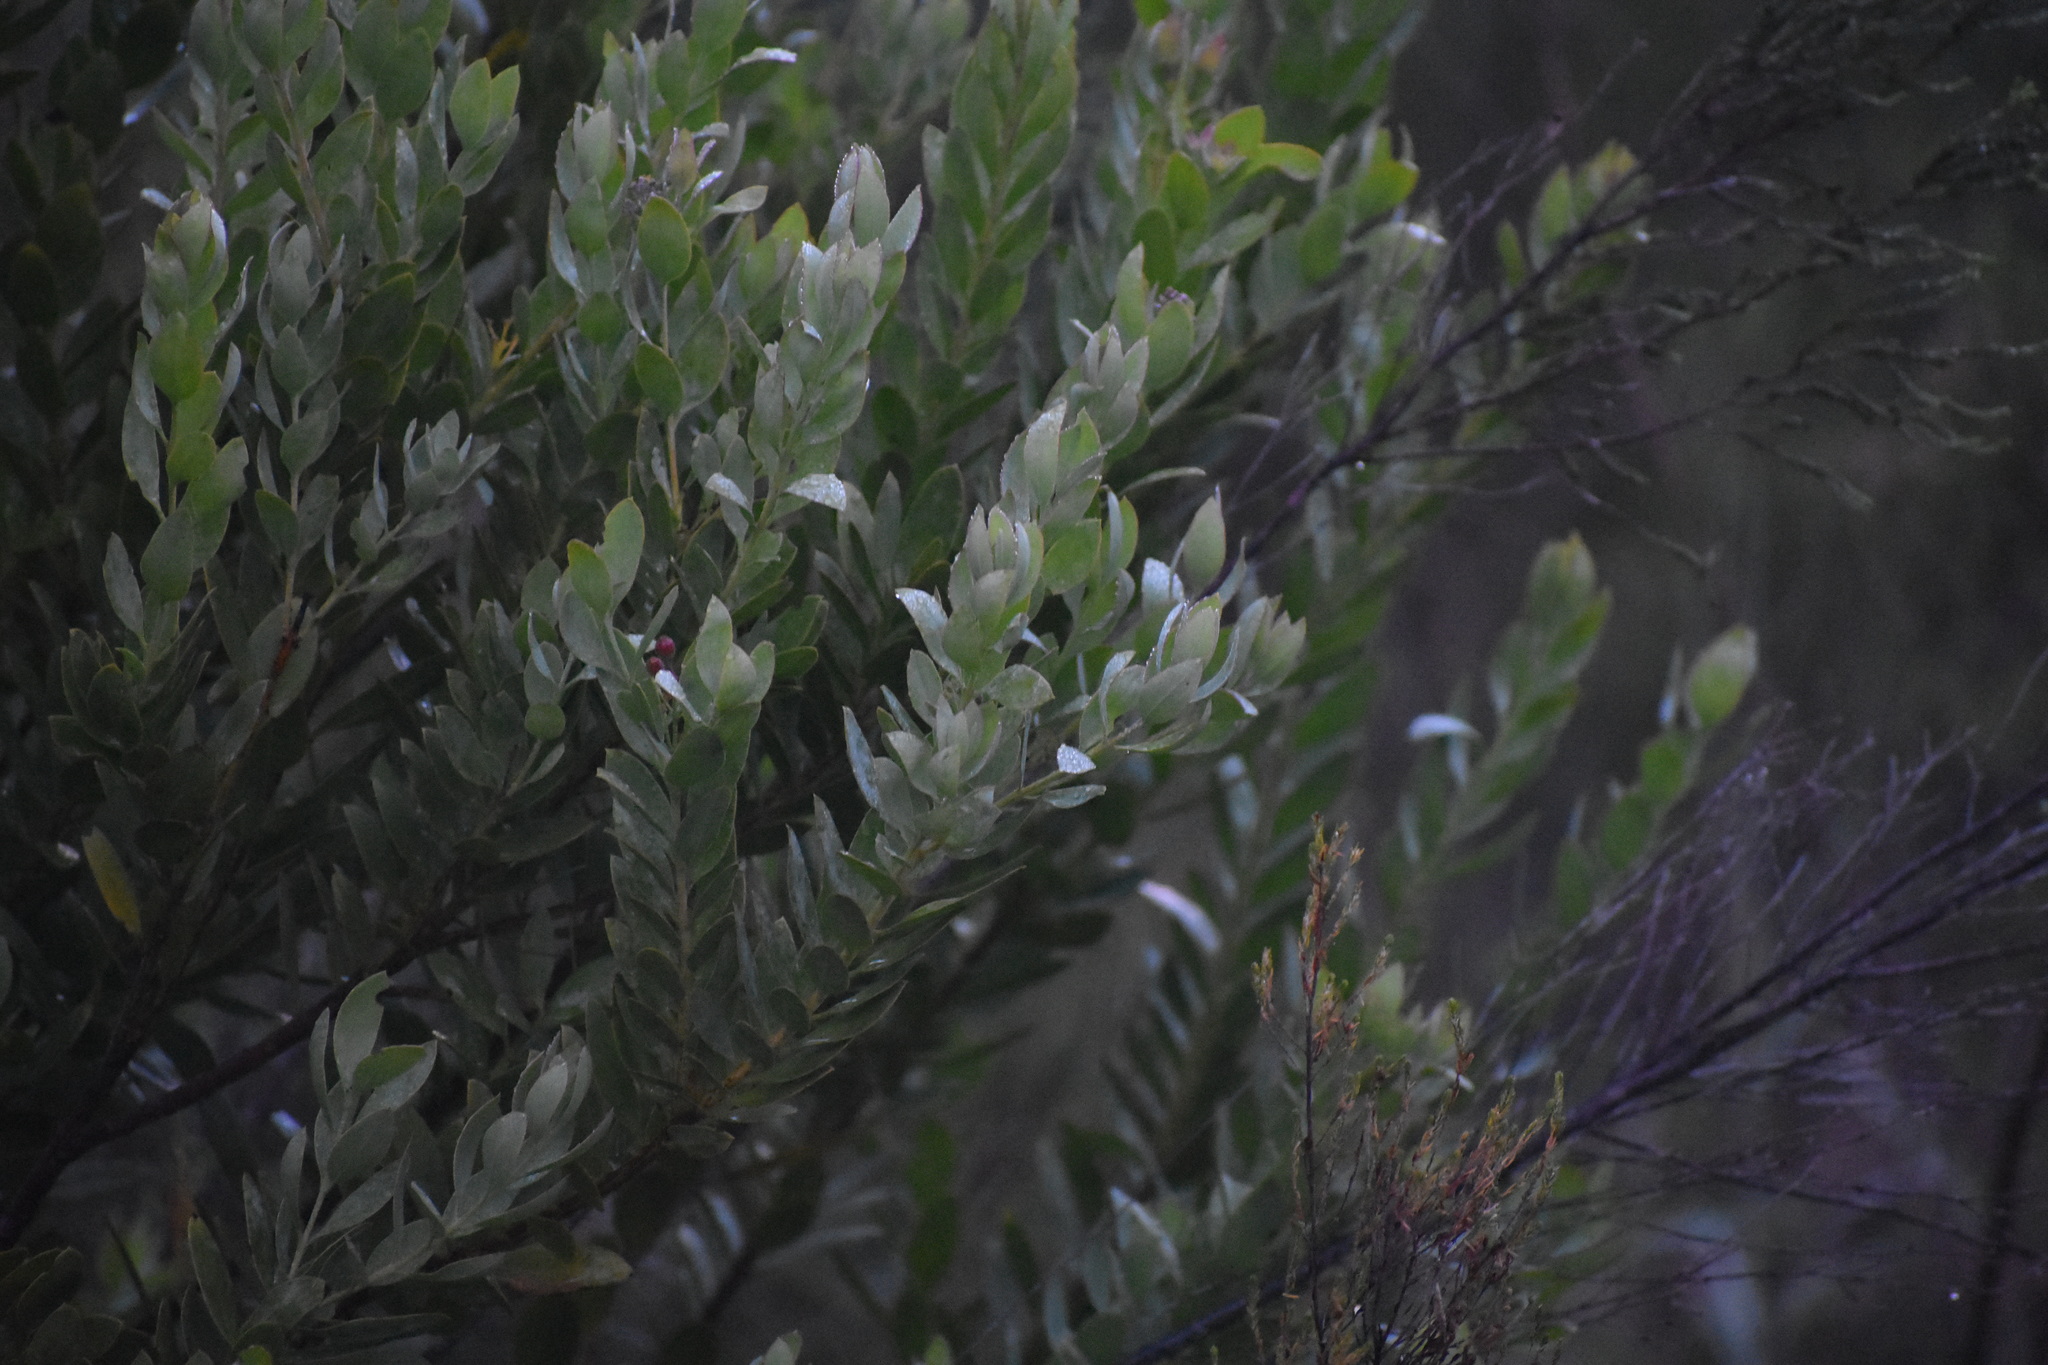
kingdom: Plantae
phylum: Tracheophyta
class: Magnoliopsida
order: Santalales
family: Santalaceae
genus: Osyris
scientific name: Osyris compressa
